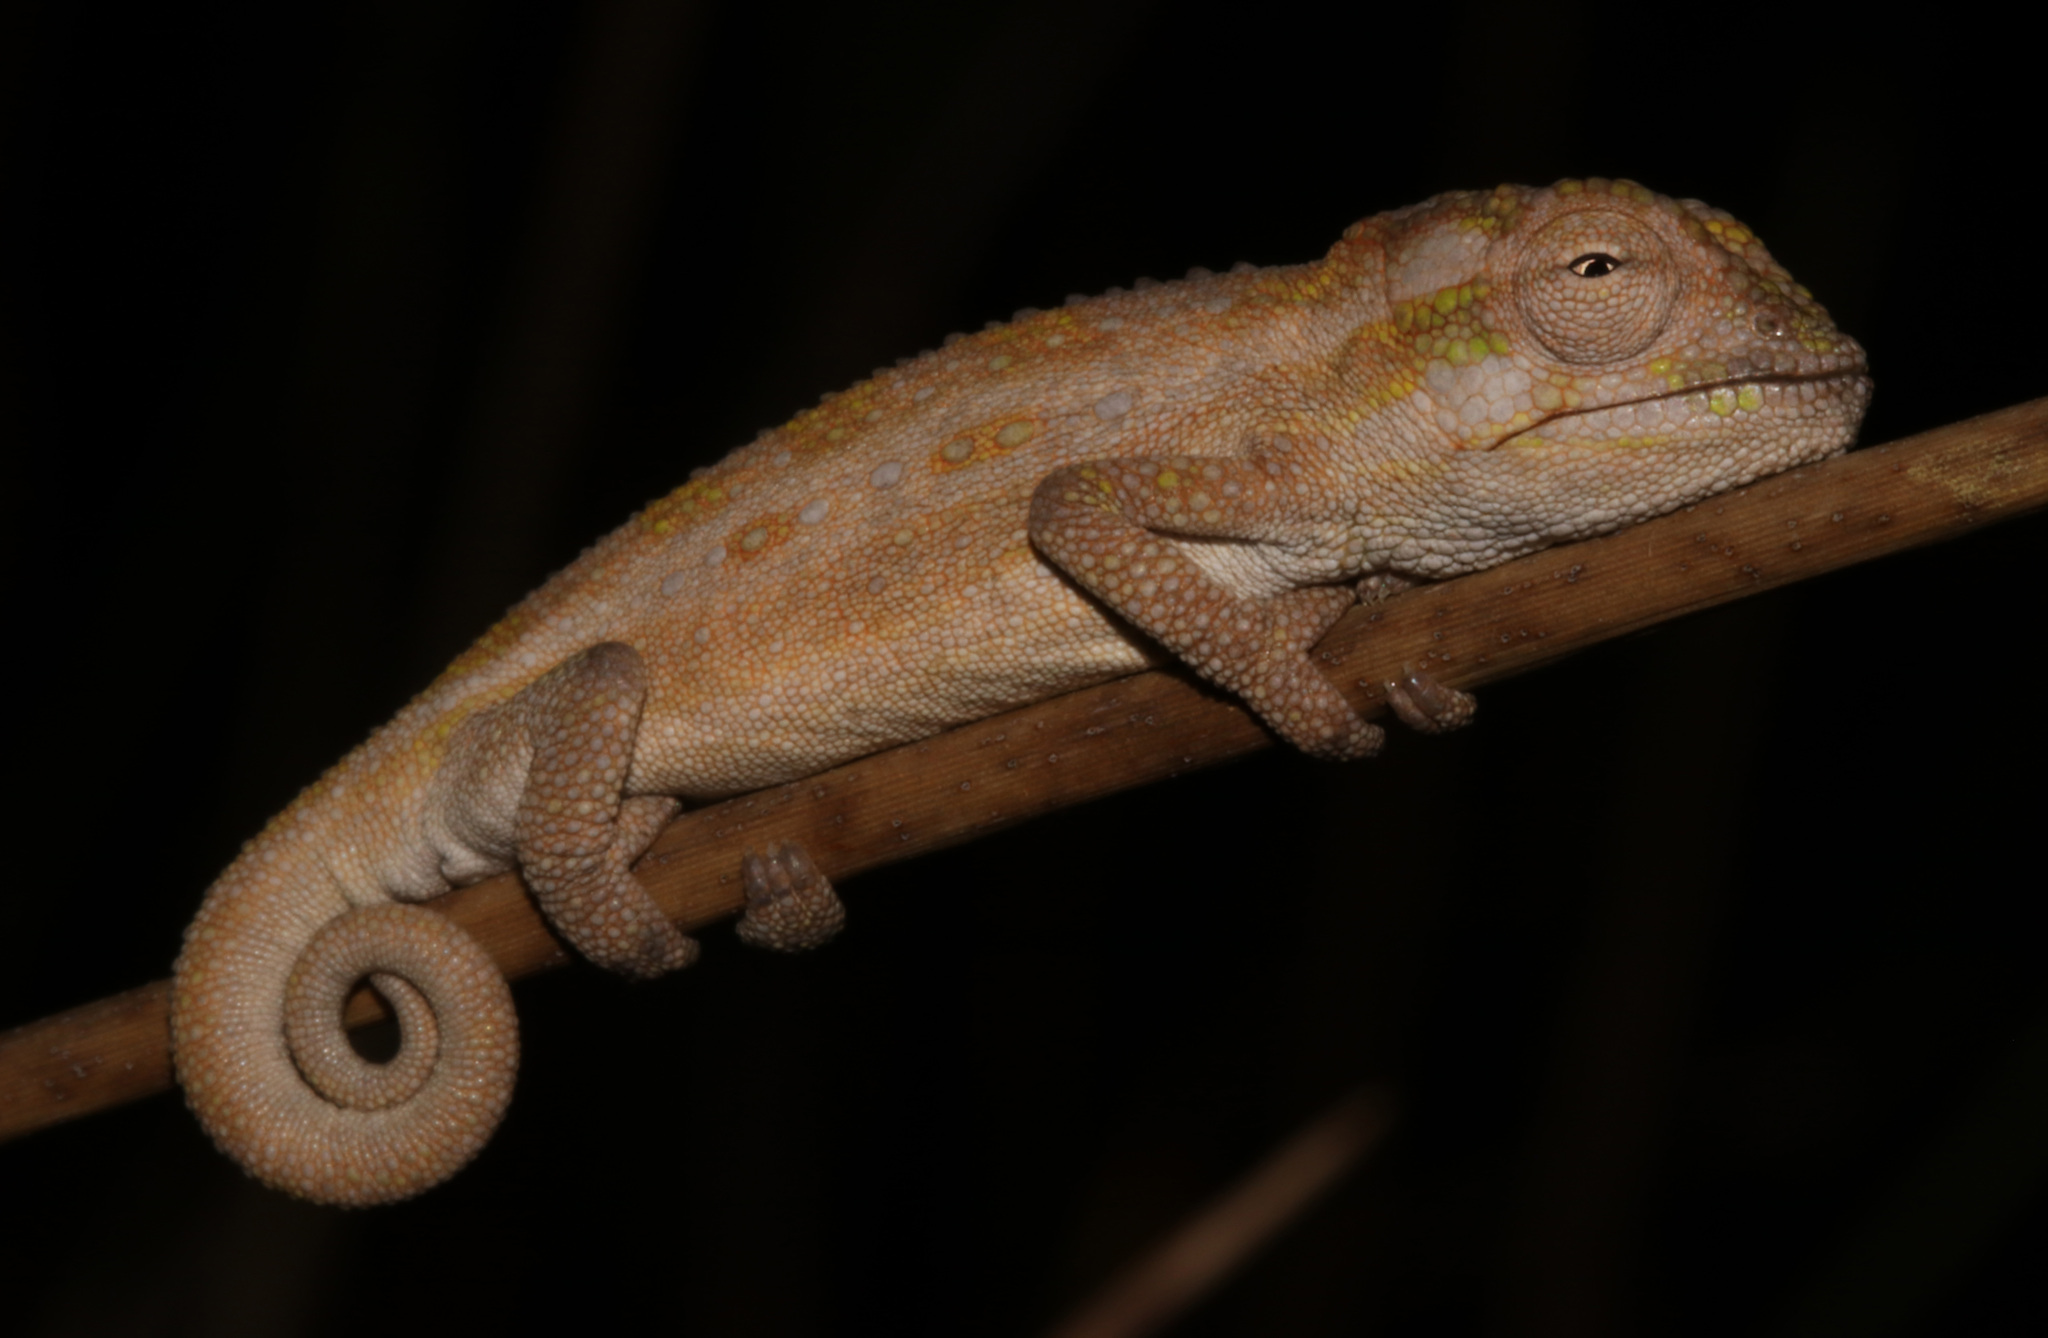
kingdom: Animalia
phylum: Chordata
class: Squamata
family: Chamaeleonidae
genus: Bradypodion
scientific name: Bradypodion pumilum
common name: Cape dwarf chameleon
